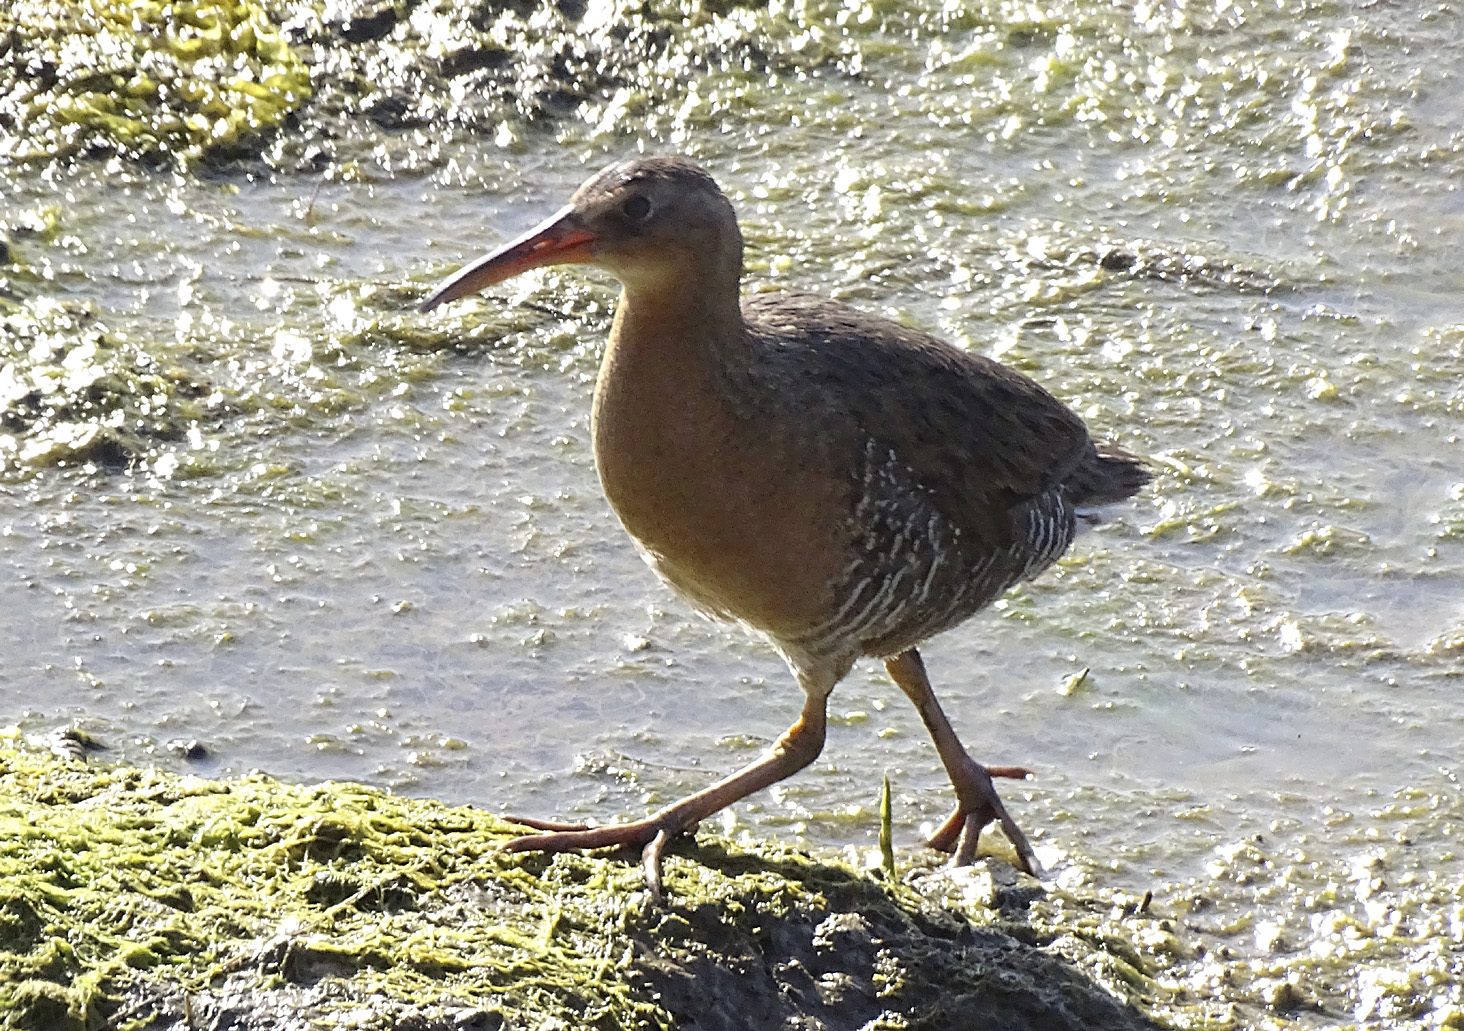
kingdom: Animalia
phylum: Chordata
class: Aves
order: Gruiformes
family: Rallidae
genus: Rallus
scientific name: Rallus obsoletus
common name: Ridgway's rail
